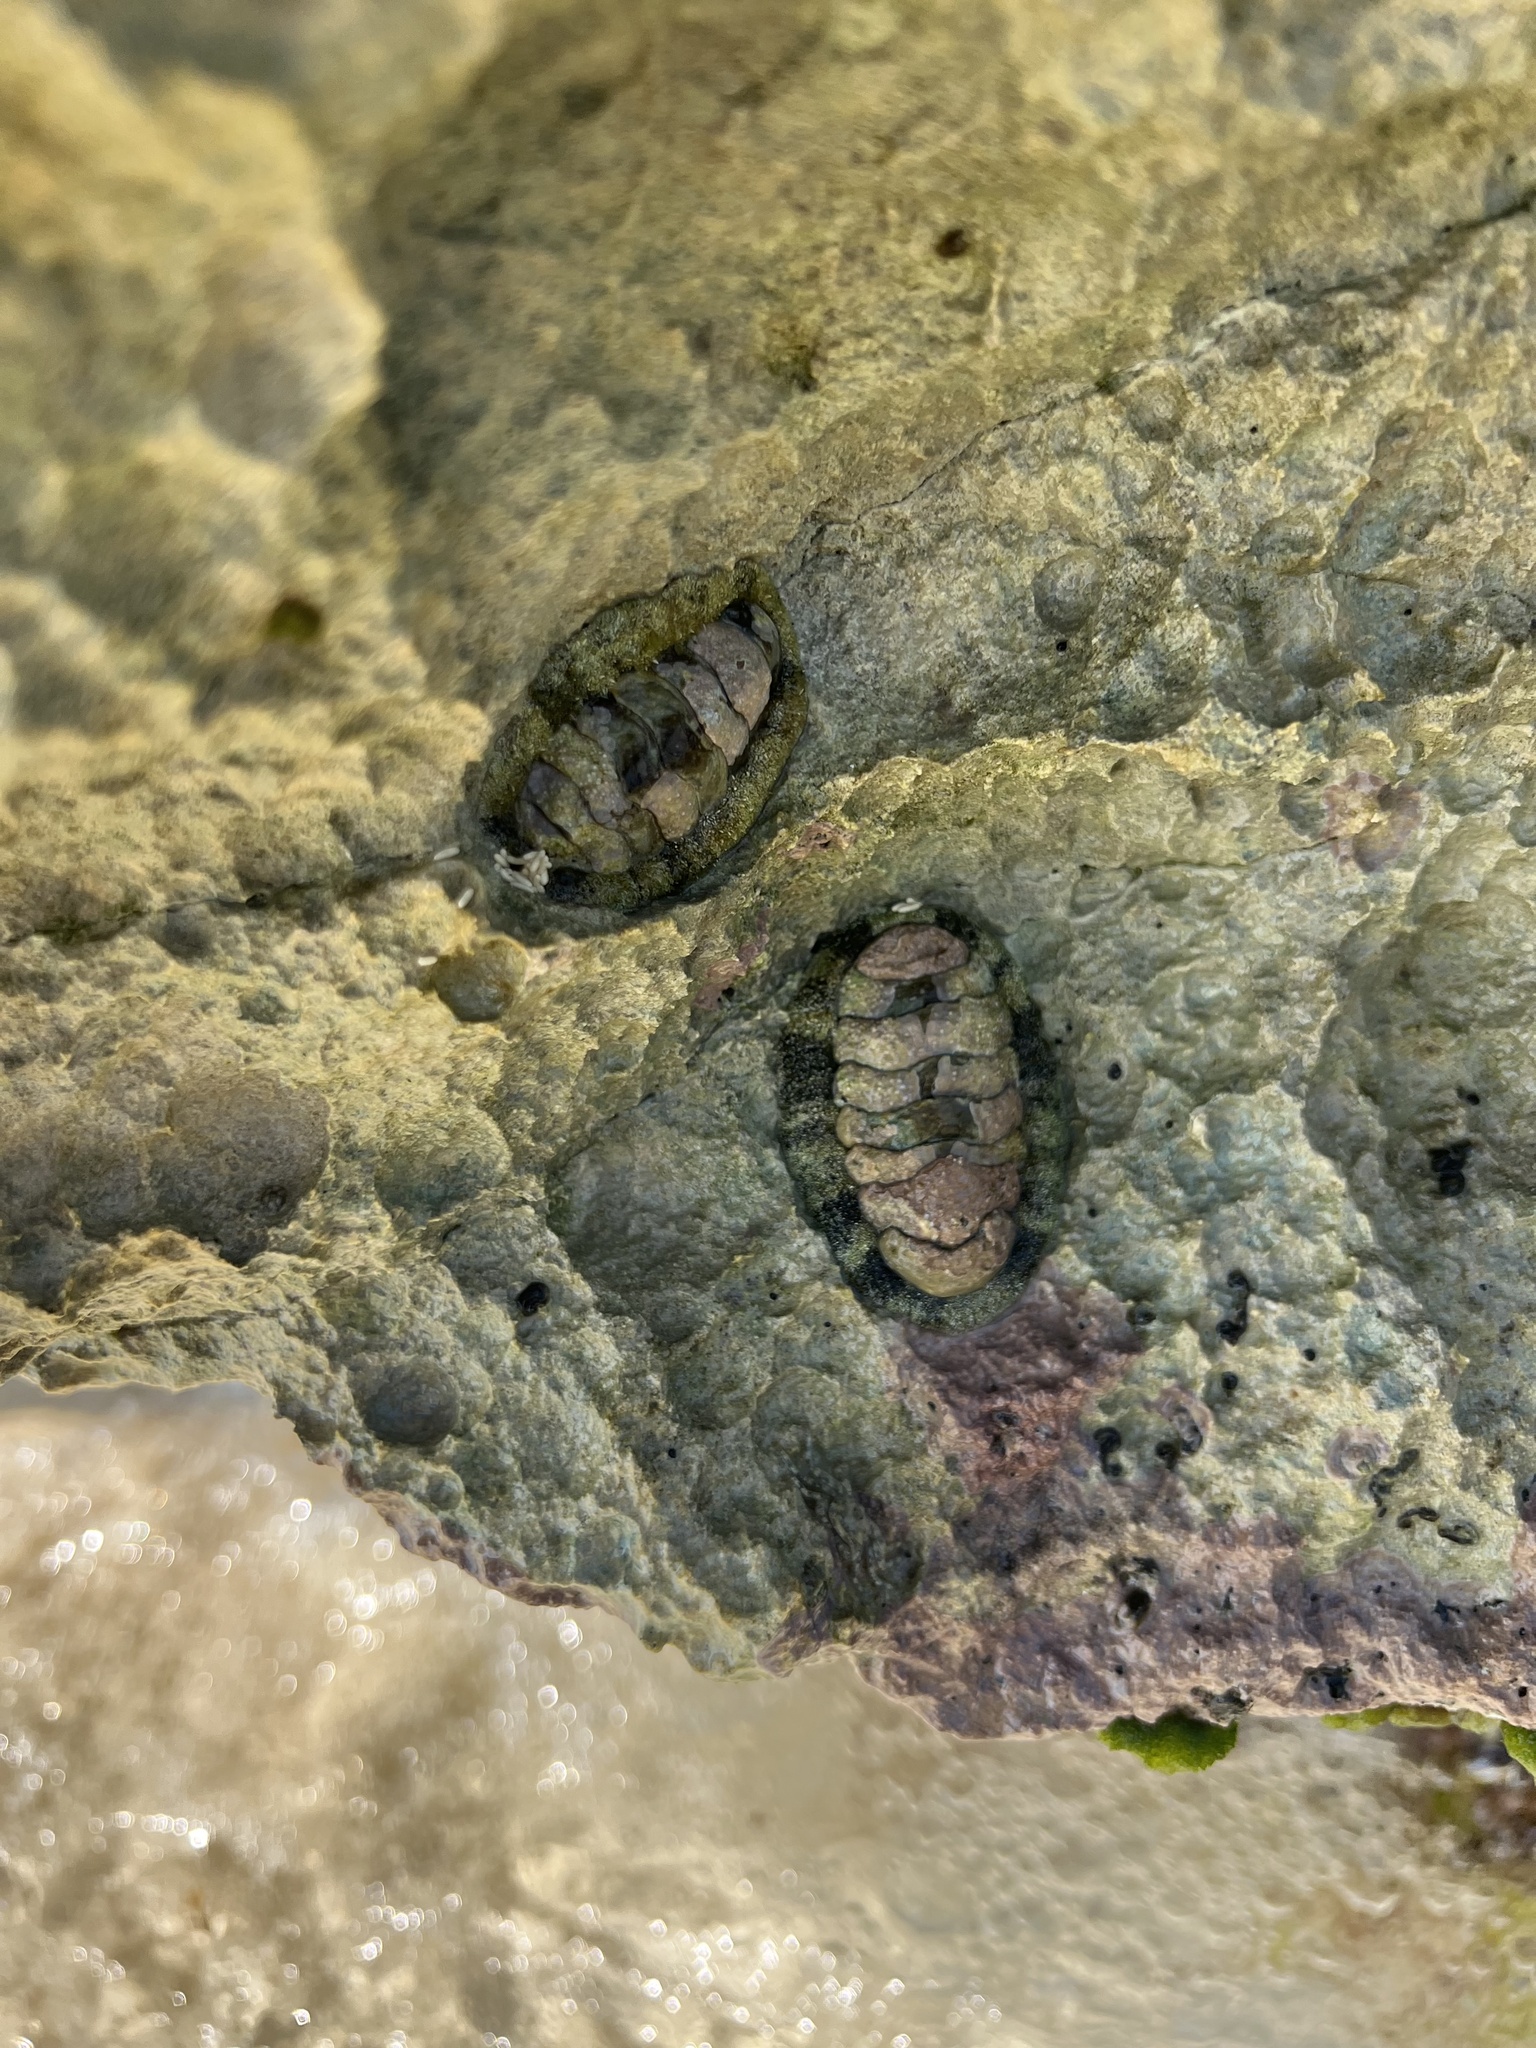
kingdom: Animalia
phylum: Mollusca
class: Polyplacophora
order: Chitonida
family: Chitonidae
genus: Acanthopleura
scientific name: Acanthopleura granulata
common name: West indian fuzzy chiton
